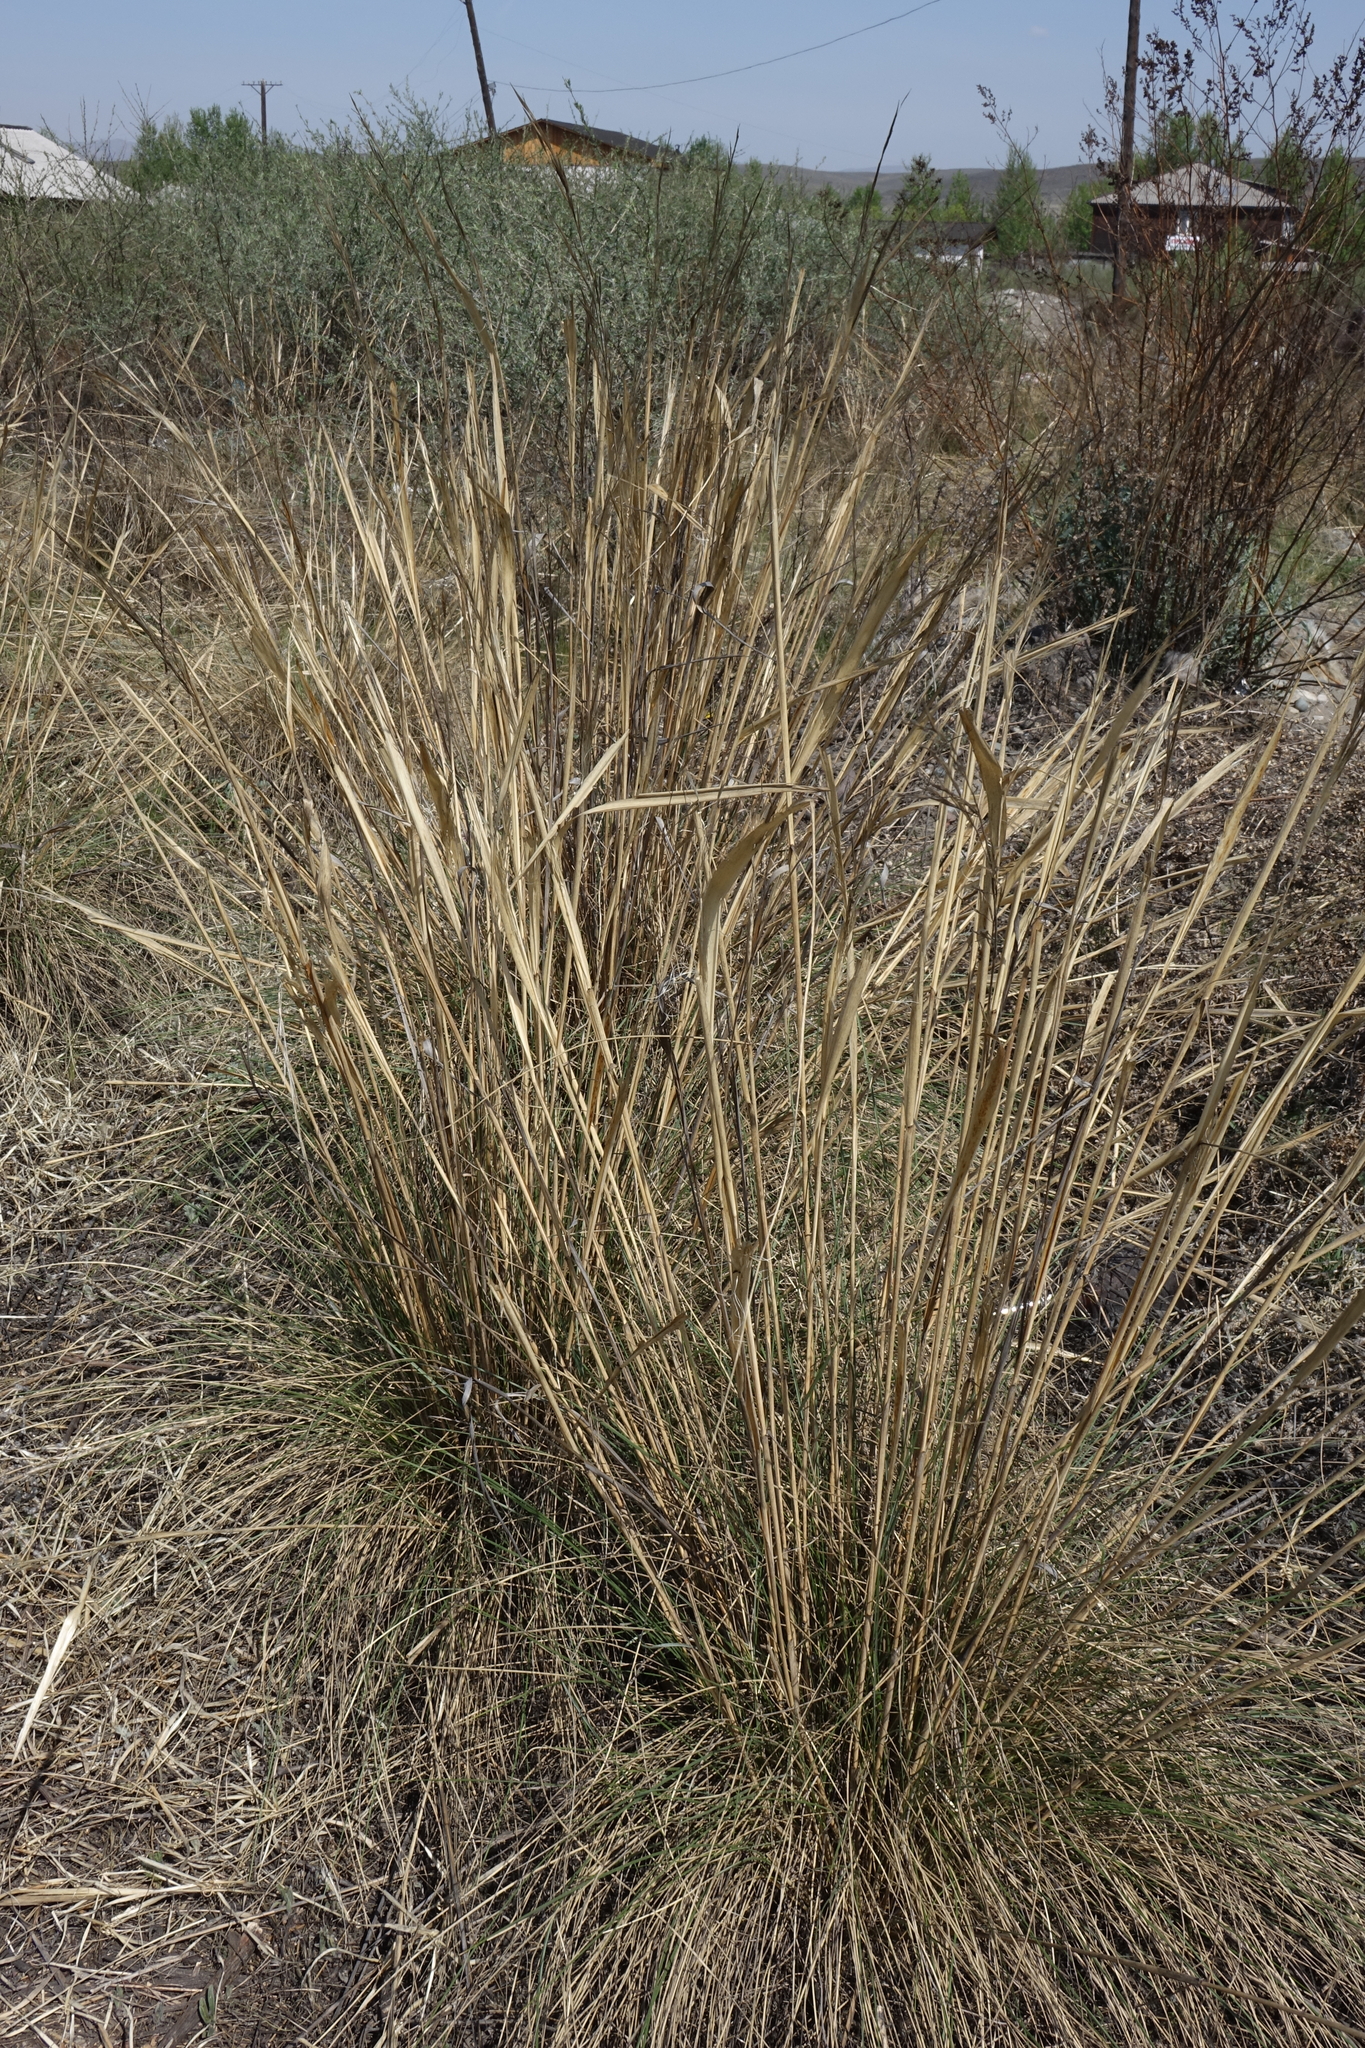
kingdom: Plantae
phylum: Tracheophyta
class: Liliopsida
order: Poales
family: Poaceae
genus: Neotrinia
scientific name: Neotrinia splendens
